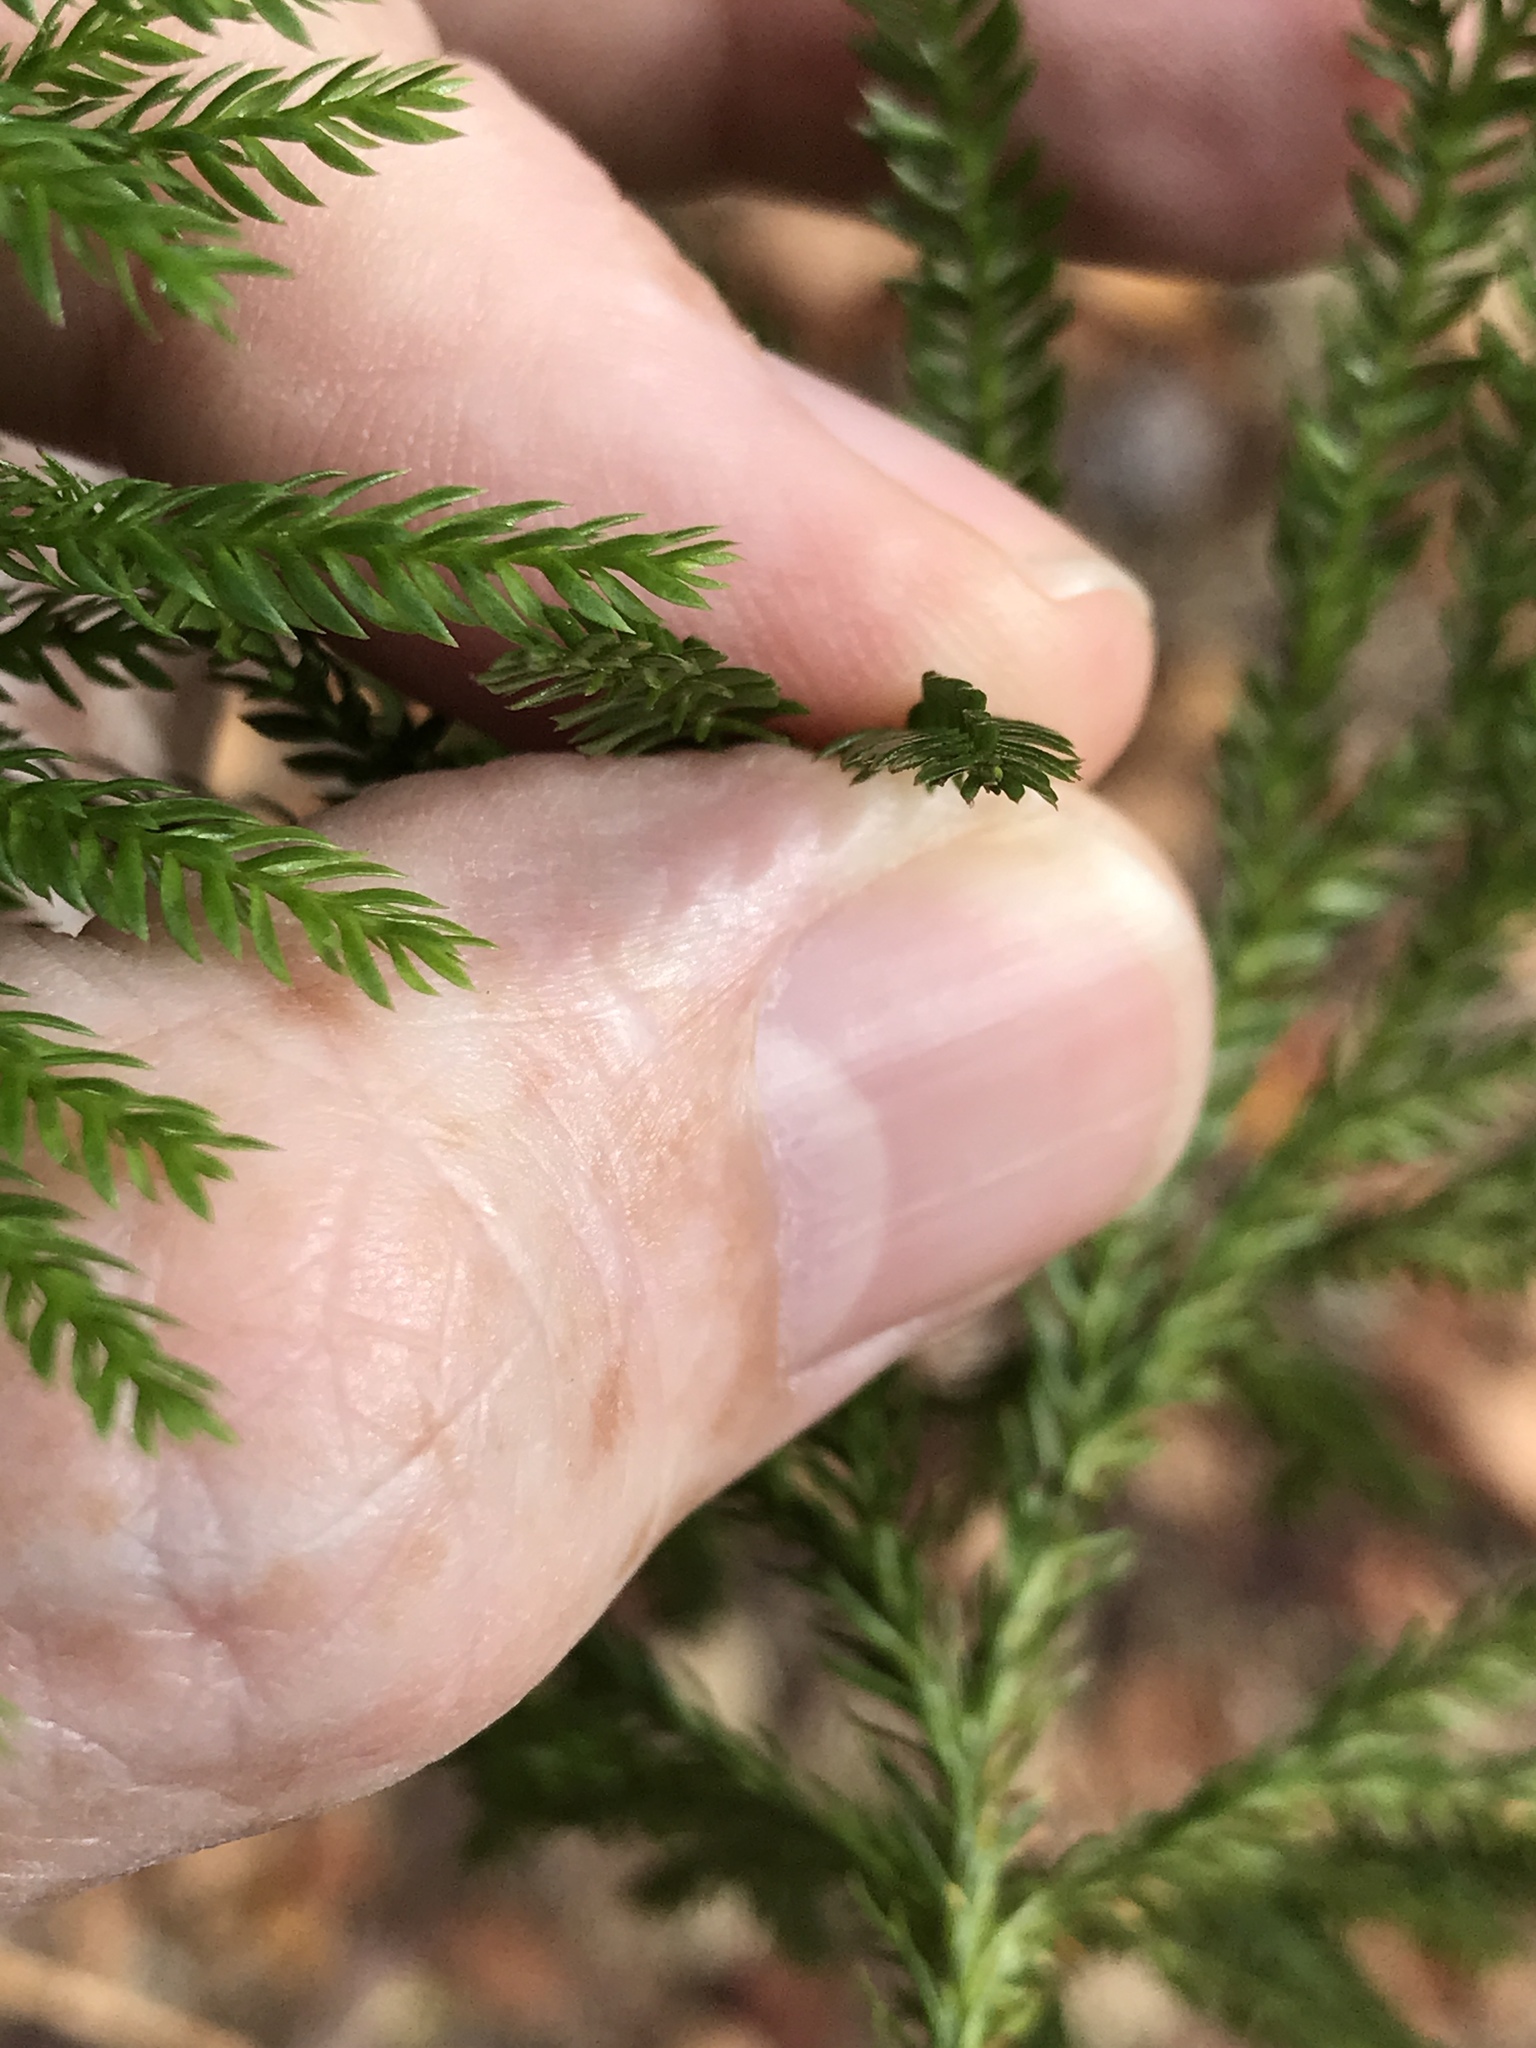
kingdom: Plantae
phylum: Tracheophyta
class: Lycopodiopsida
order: Lycopodiales
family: Lycopodiaceae
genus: Dendrolycopodium
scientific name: Dendrolycopodium obscurum
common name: Common ground-pine
